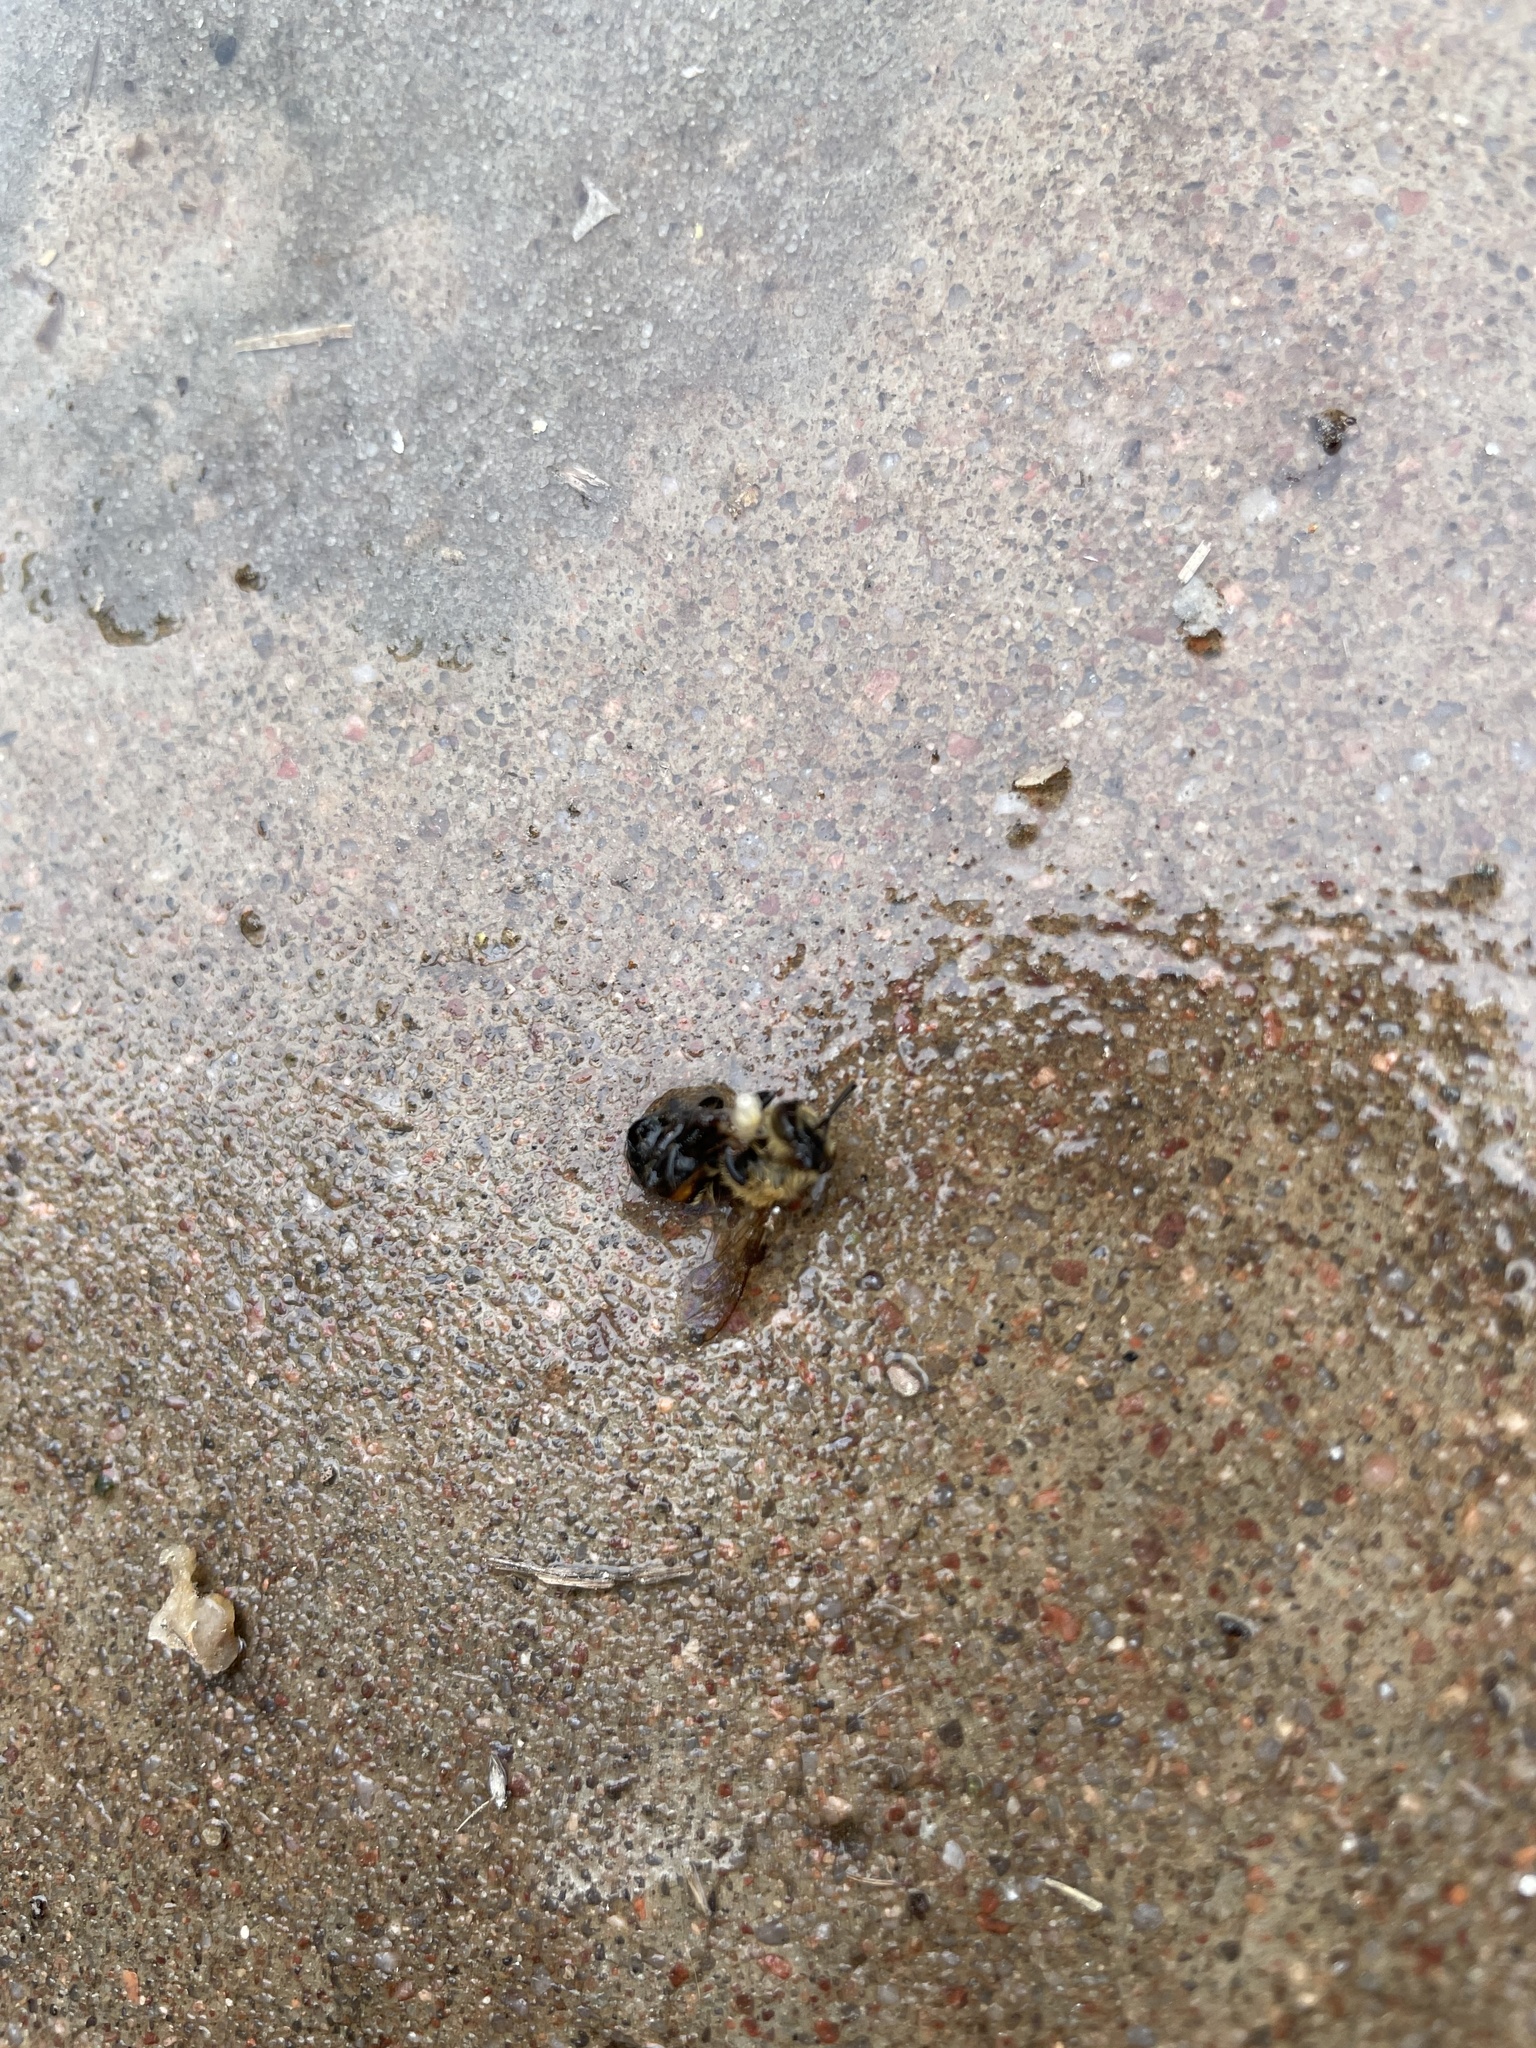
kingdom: Animalia
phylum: Arthropoda
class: Insecta
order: Hymenoptera
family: Apidae
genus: Apis
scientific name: Apis mellifera
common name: Honey bee
